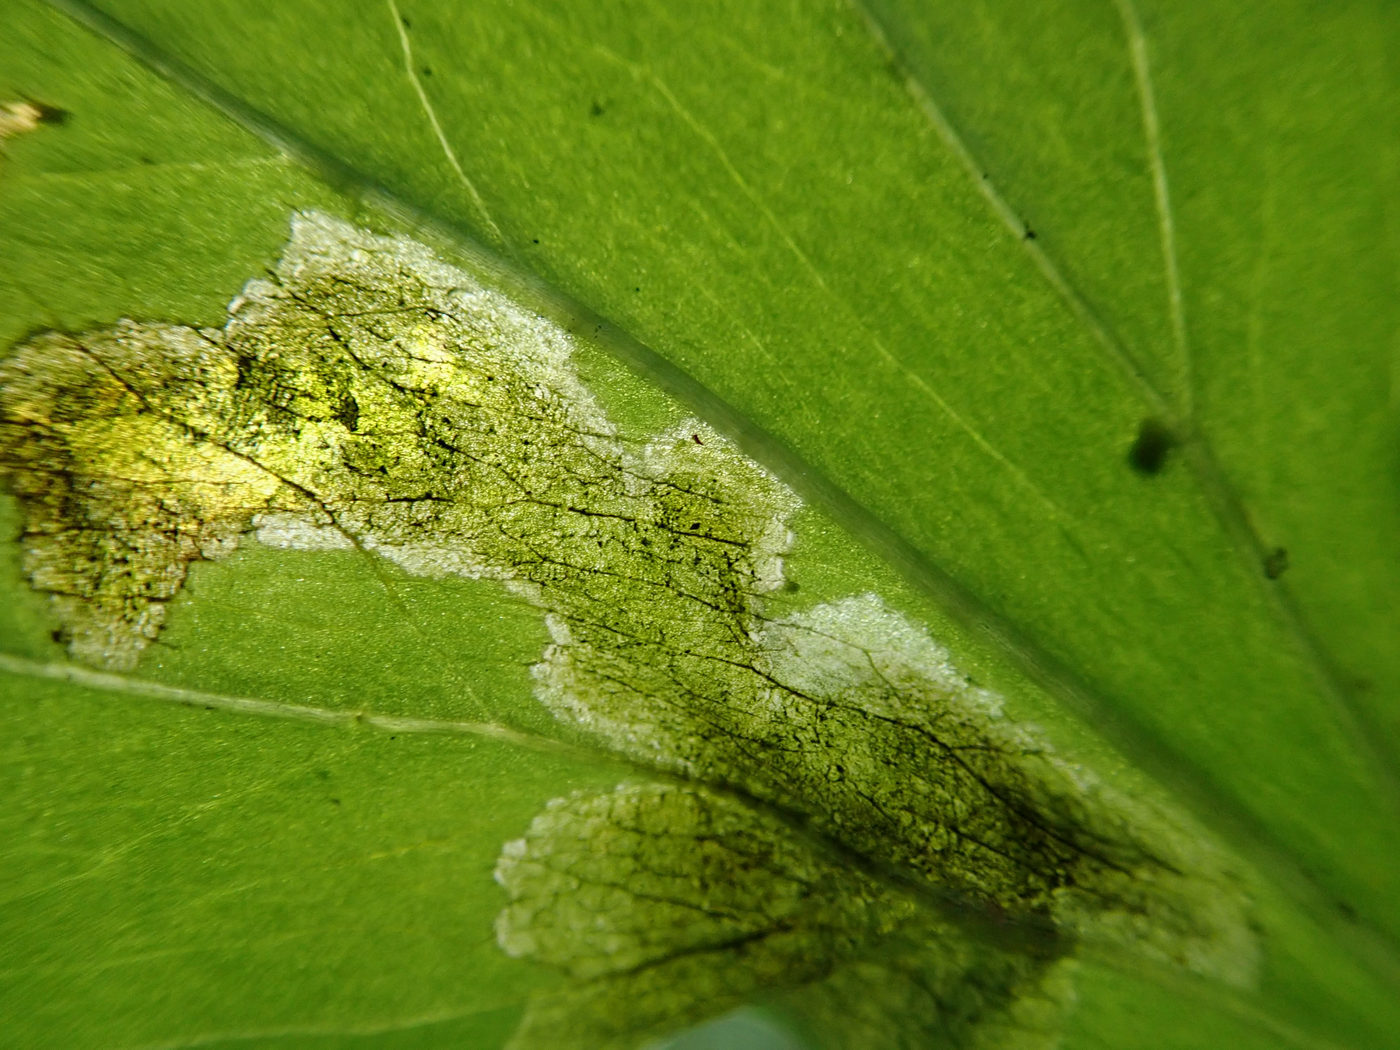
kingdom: Animalia
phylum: Arthropoda
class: Insecta
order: Diptera
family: Scathophagidae
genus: Leptopa
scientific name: Leptopa
